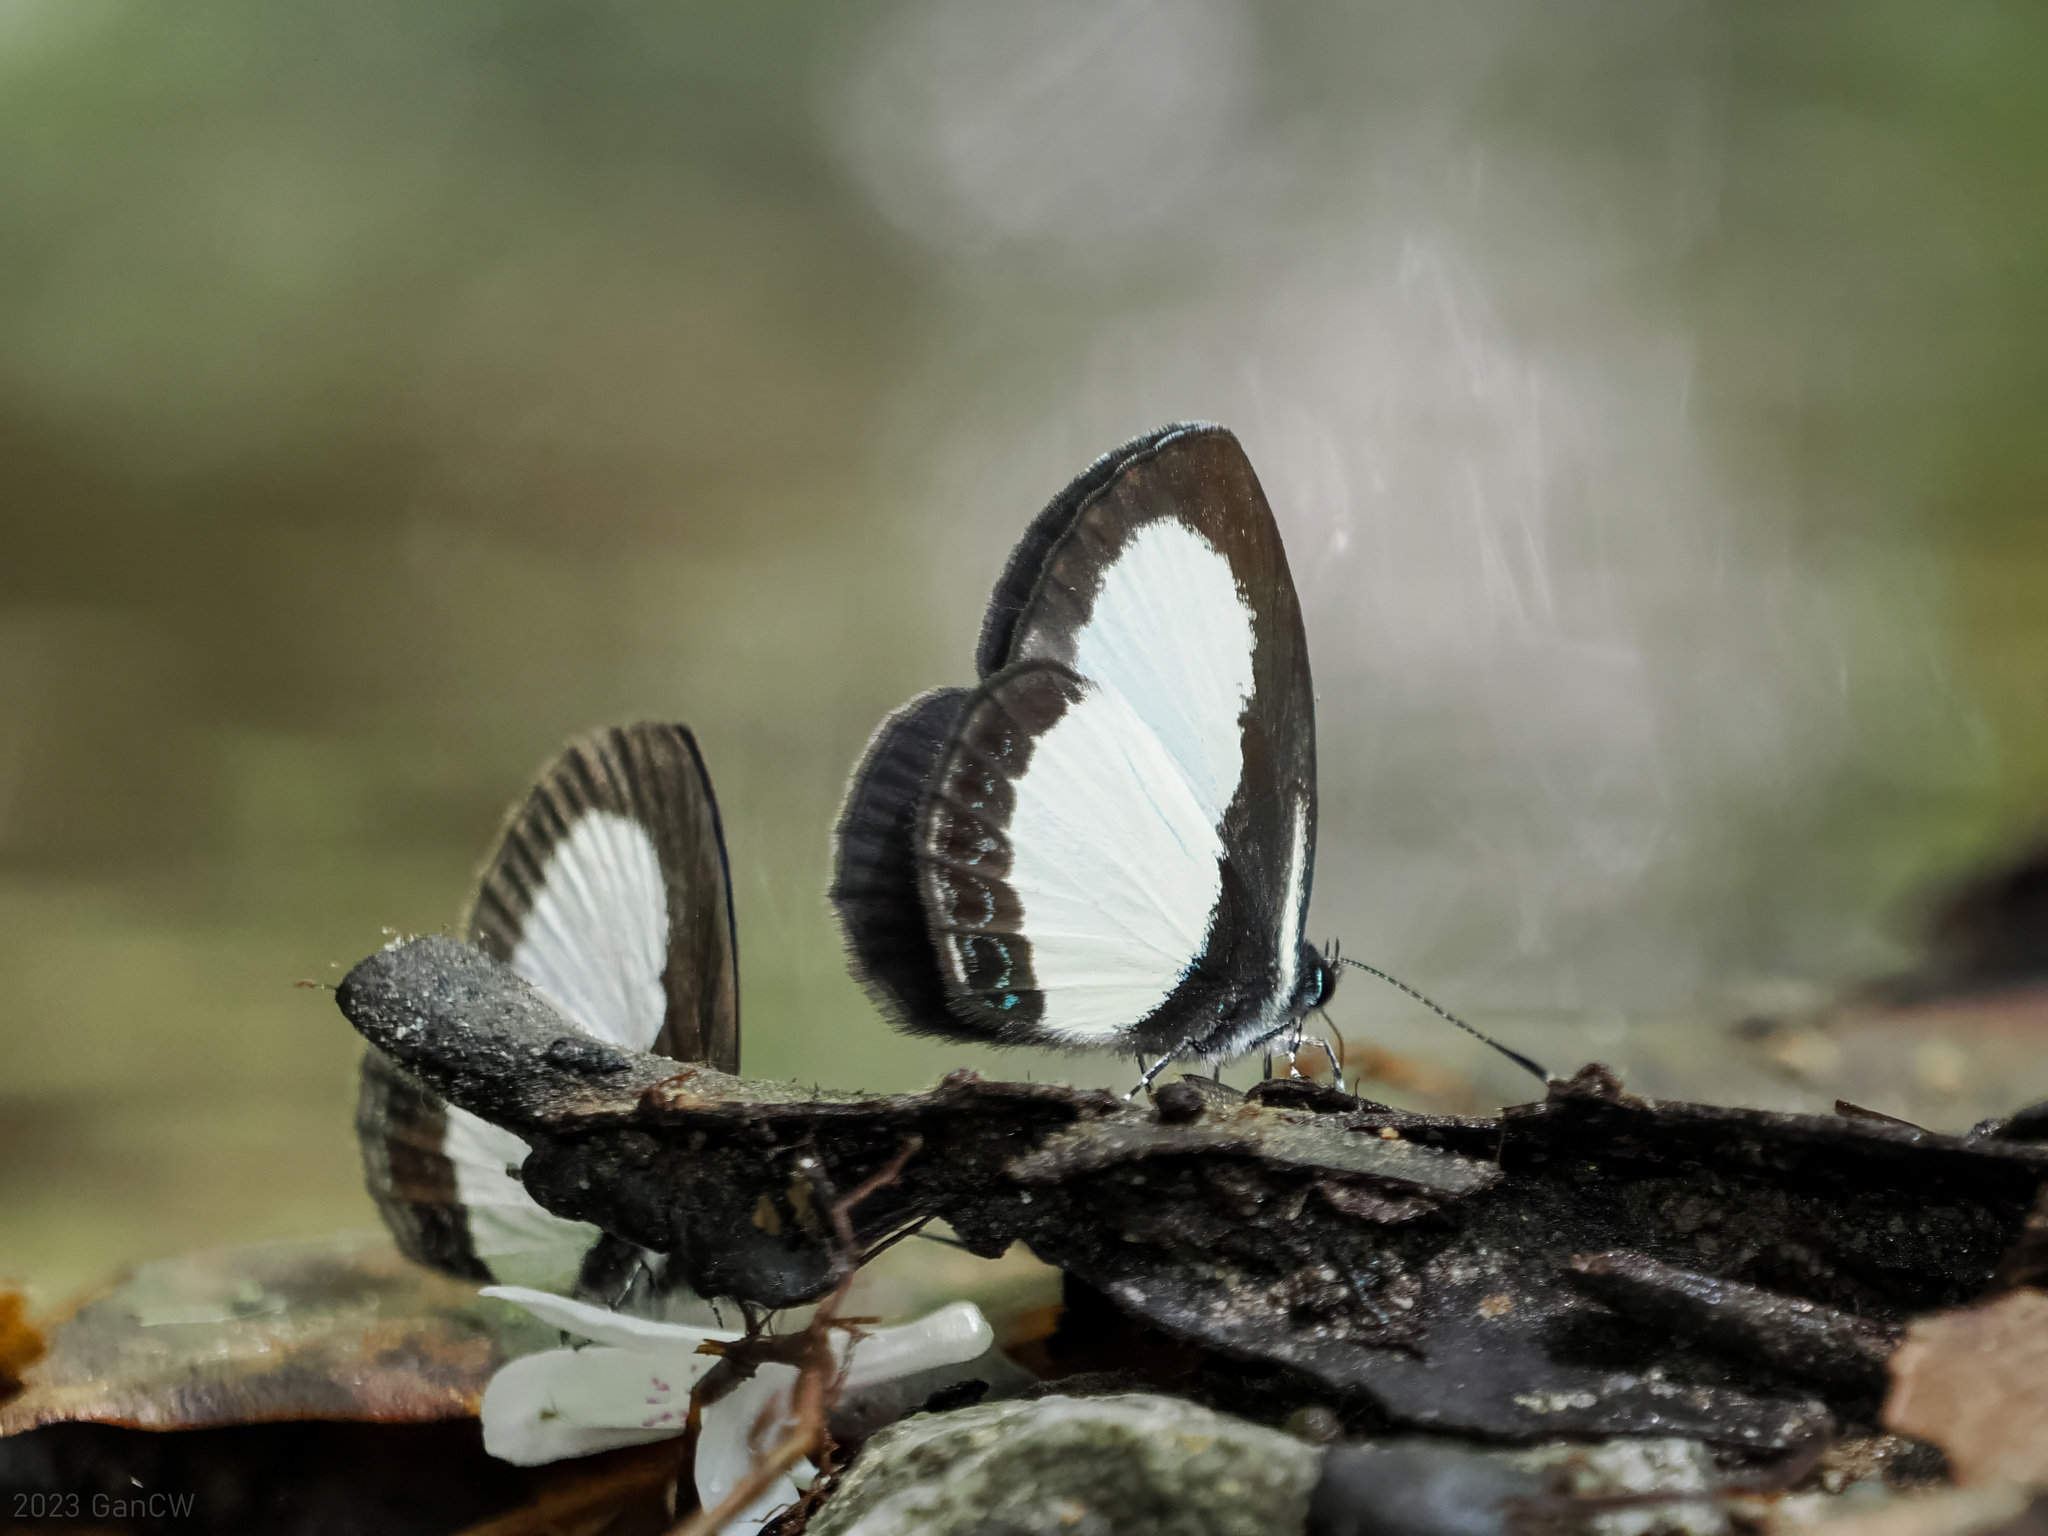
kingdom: Animalia
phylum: Arthropoda
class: Insecta
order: Lepidoptera
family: Lycaenidae
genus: Psychonotis
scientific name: Psychonotis
